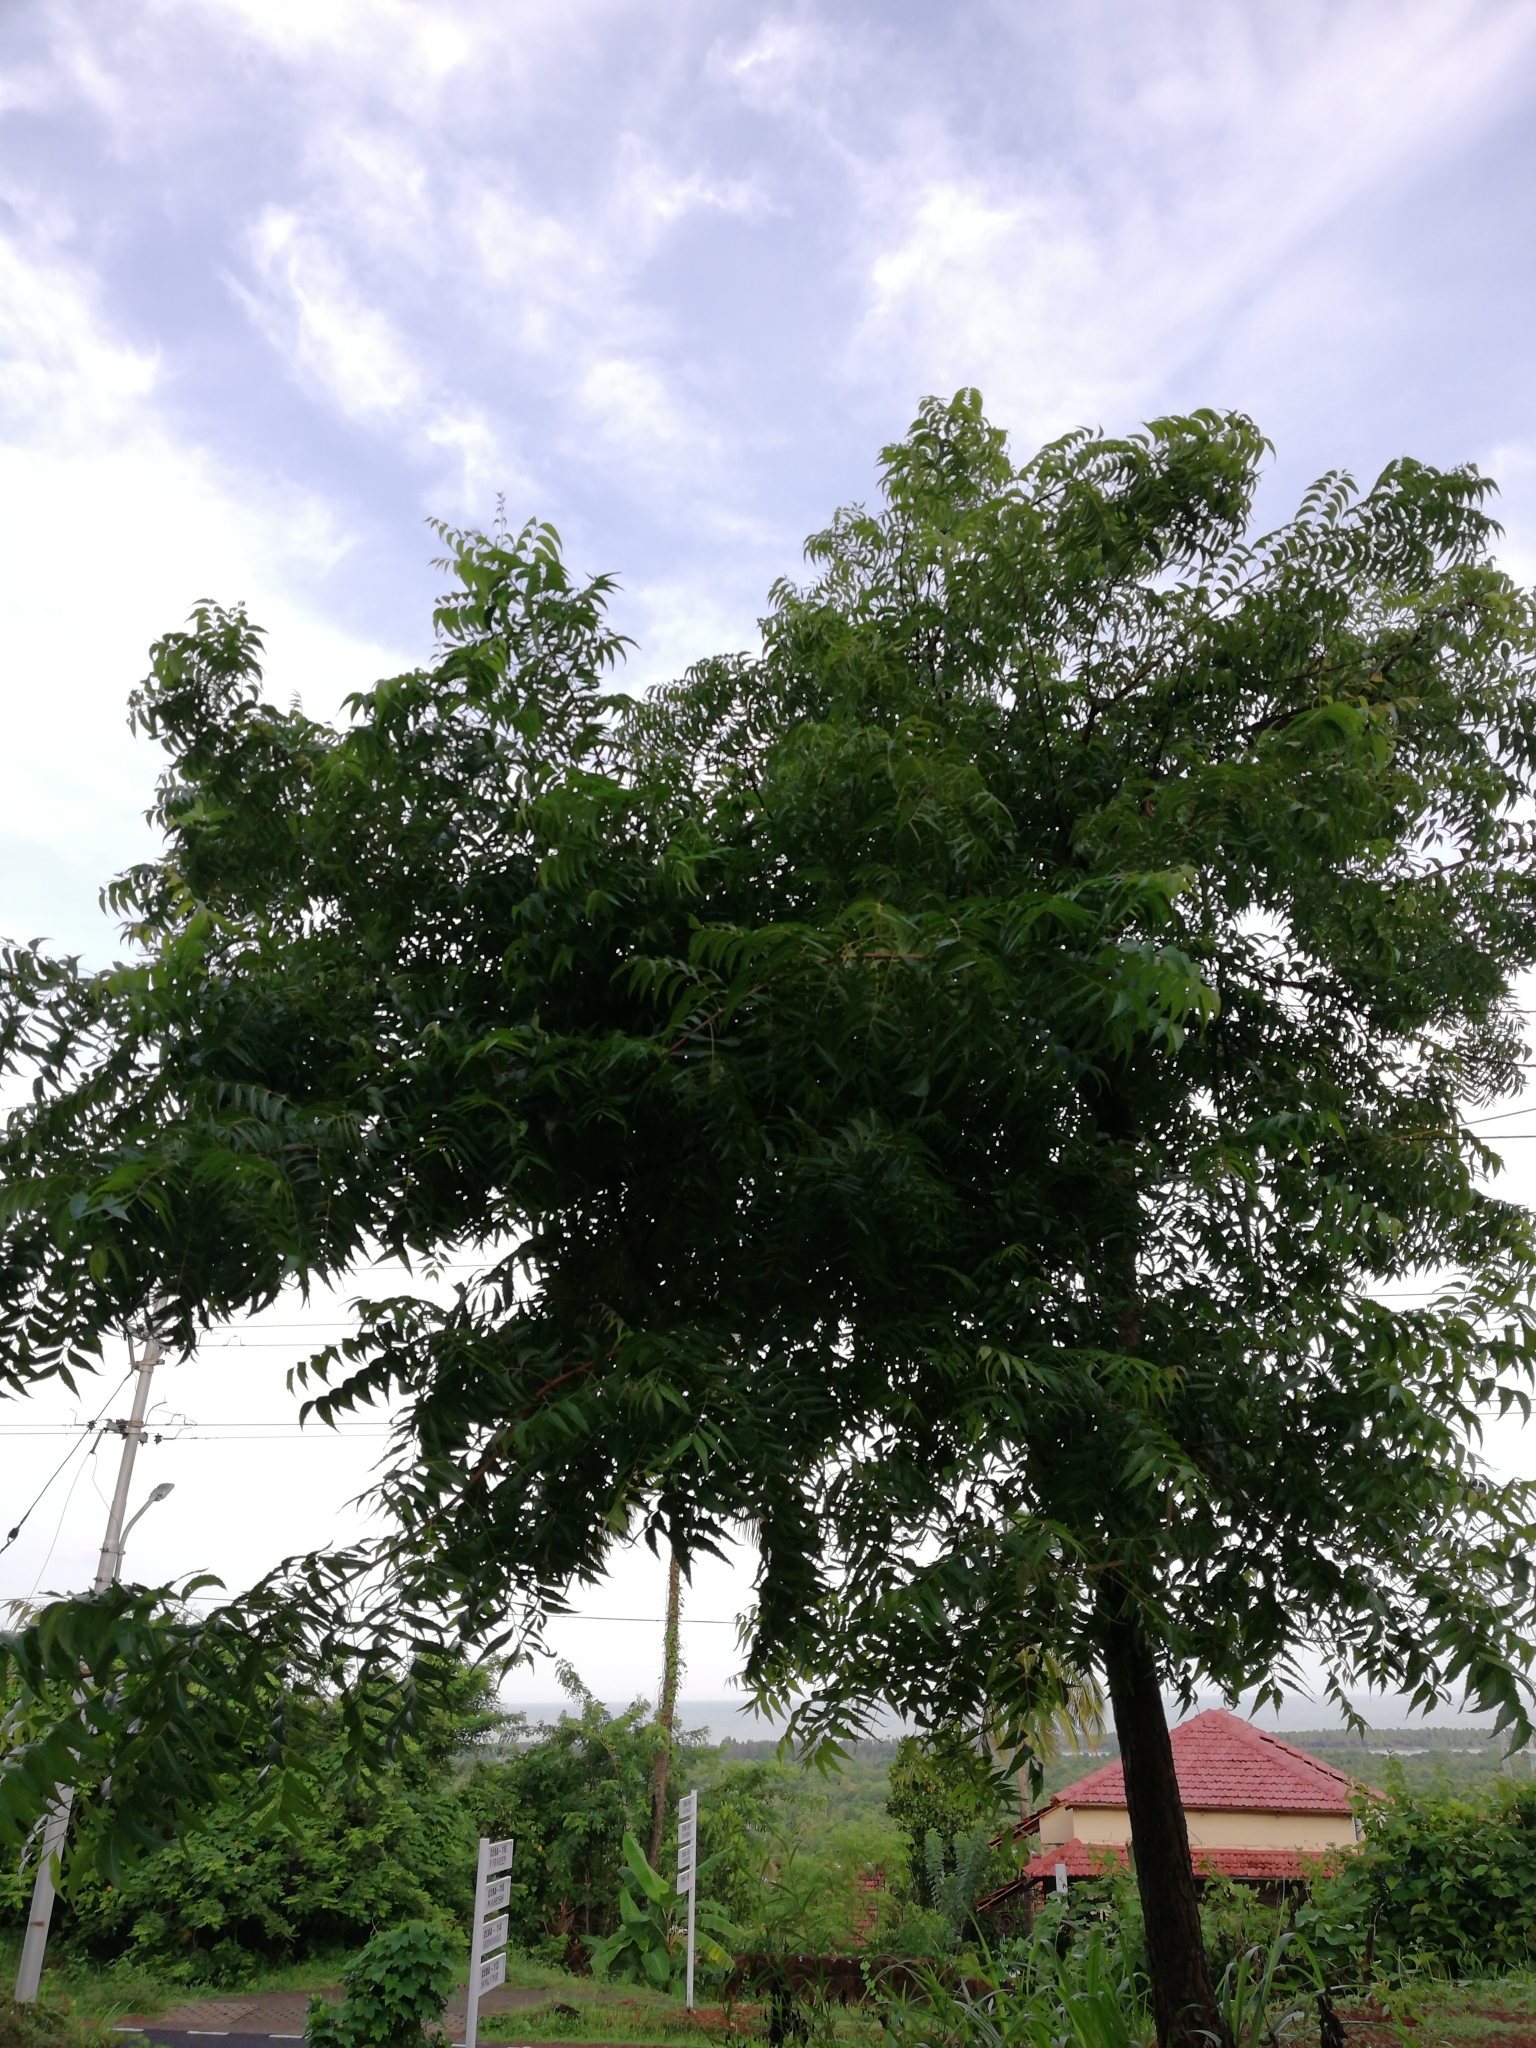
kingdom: Plantae
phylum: Tracheophyta
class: Magnoliopsida
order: Sapindales
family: Meliaceae
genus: Azadirachta
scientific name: Azadirachta indica
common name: Neem
